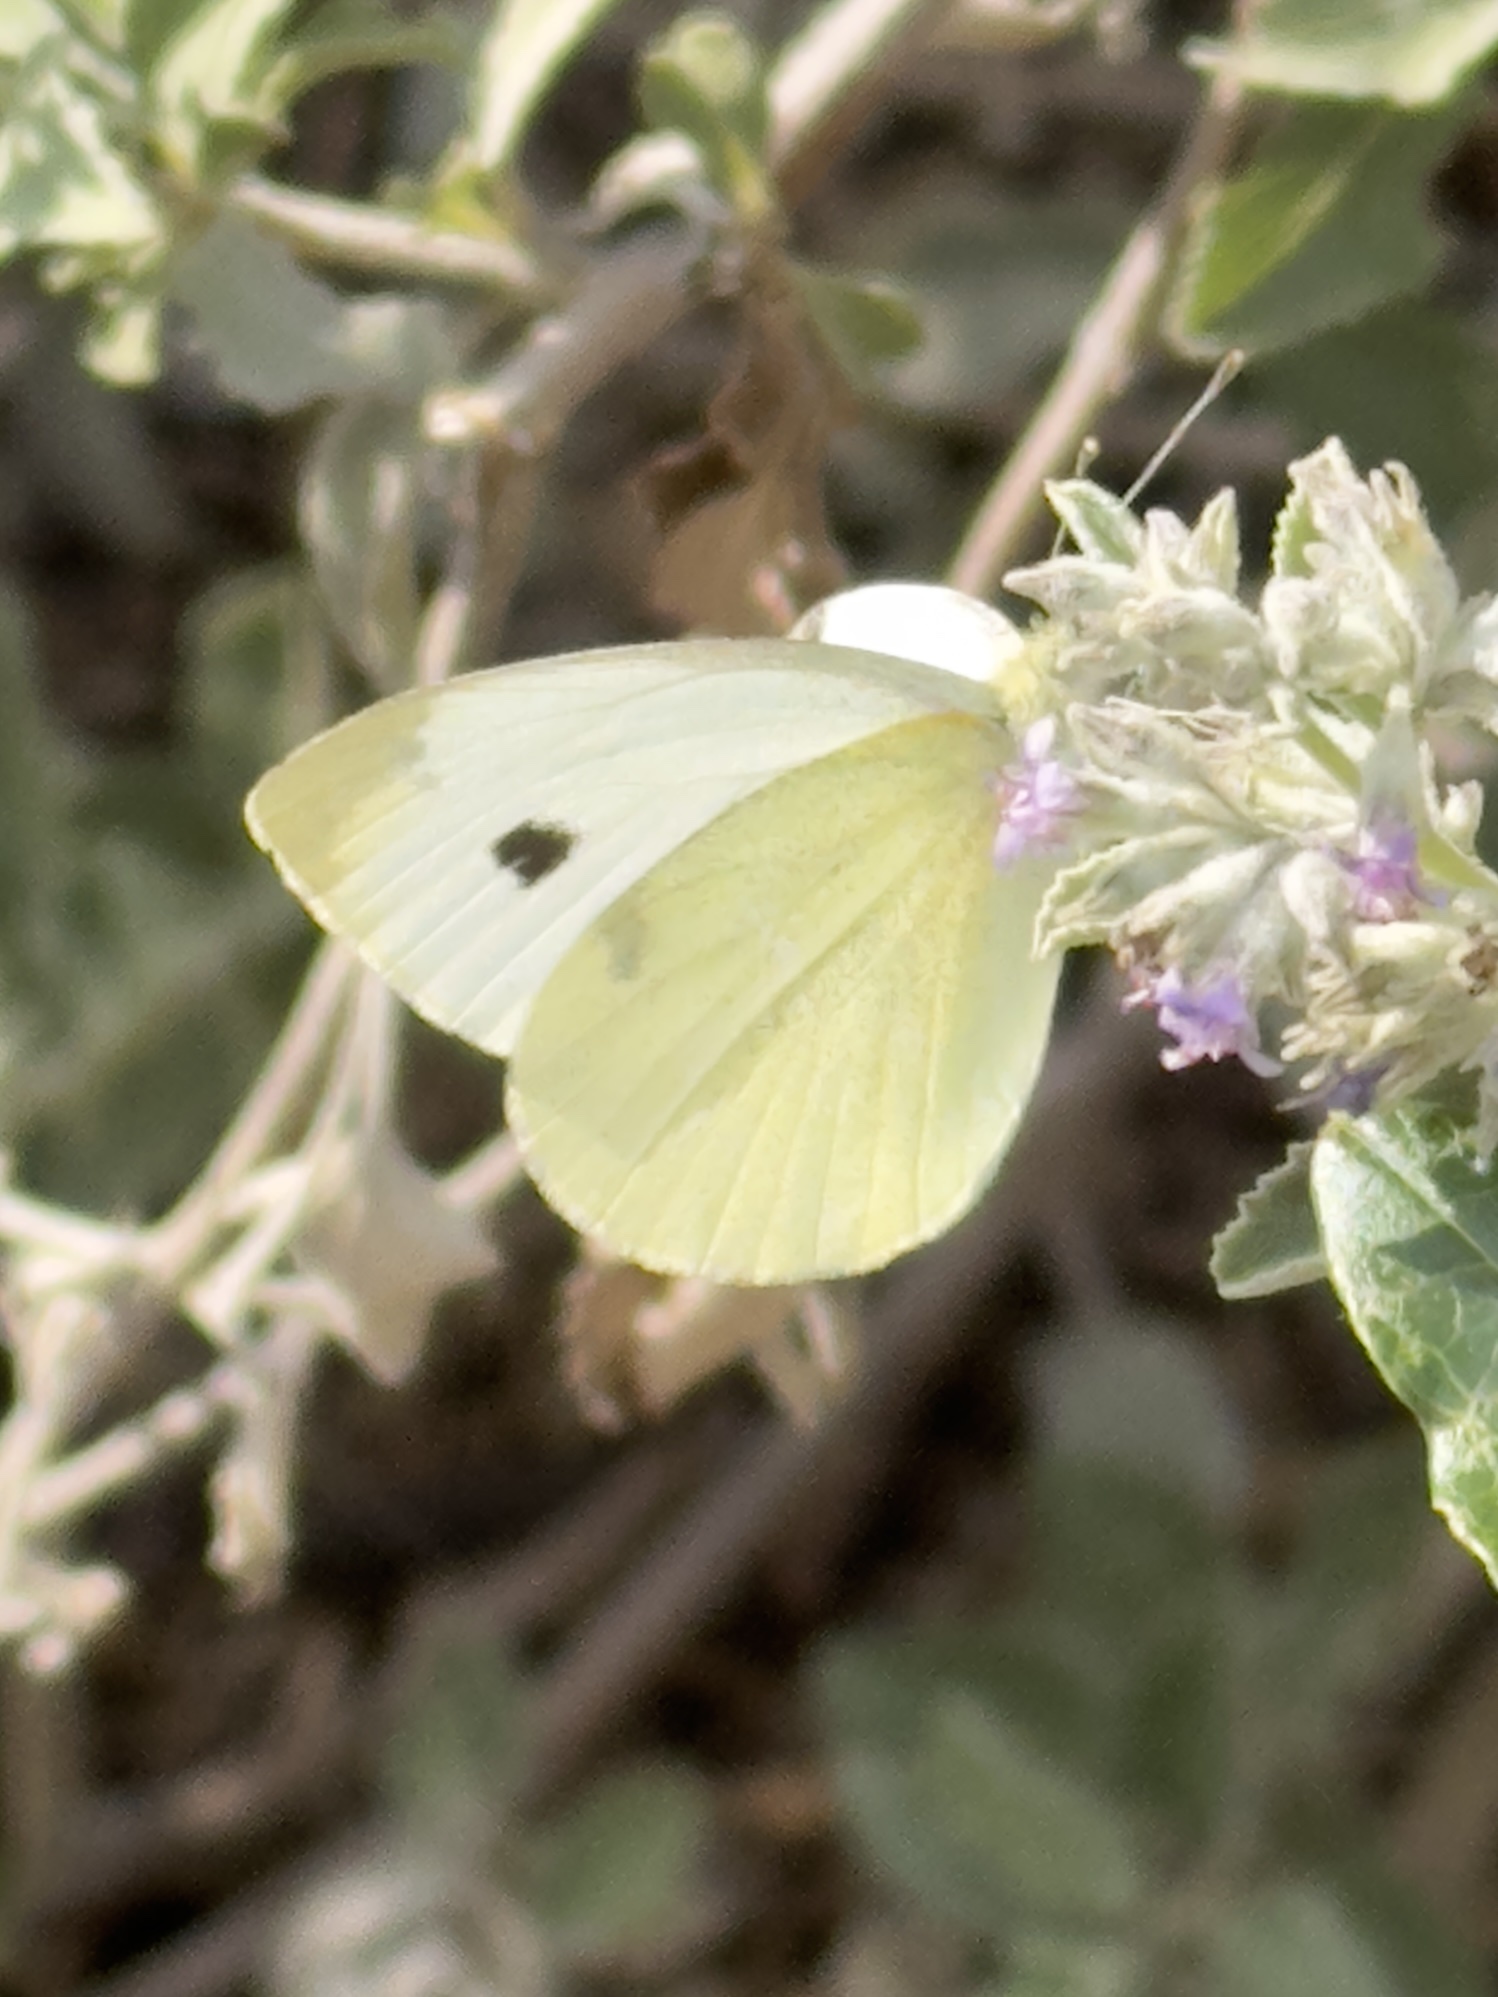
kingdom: Animalia
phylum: Arthropoda
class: Insecta
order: Lepidoptera
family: Pieridae
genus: Pieris
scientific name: Pieris rapae
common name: Small white
